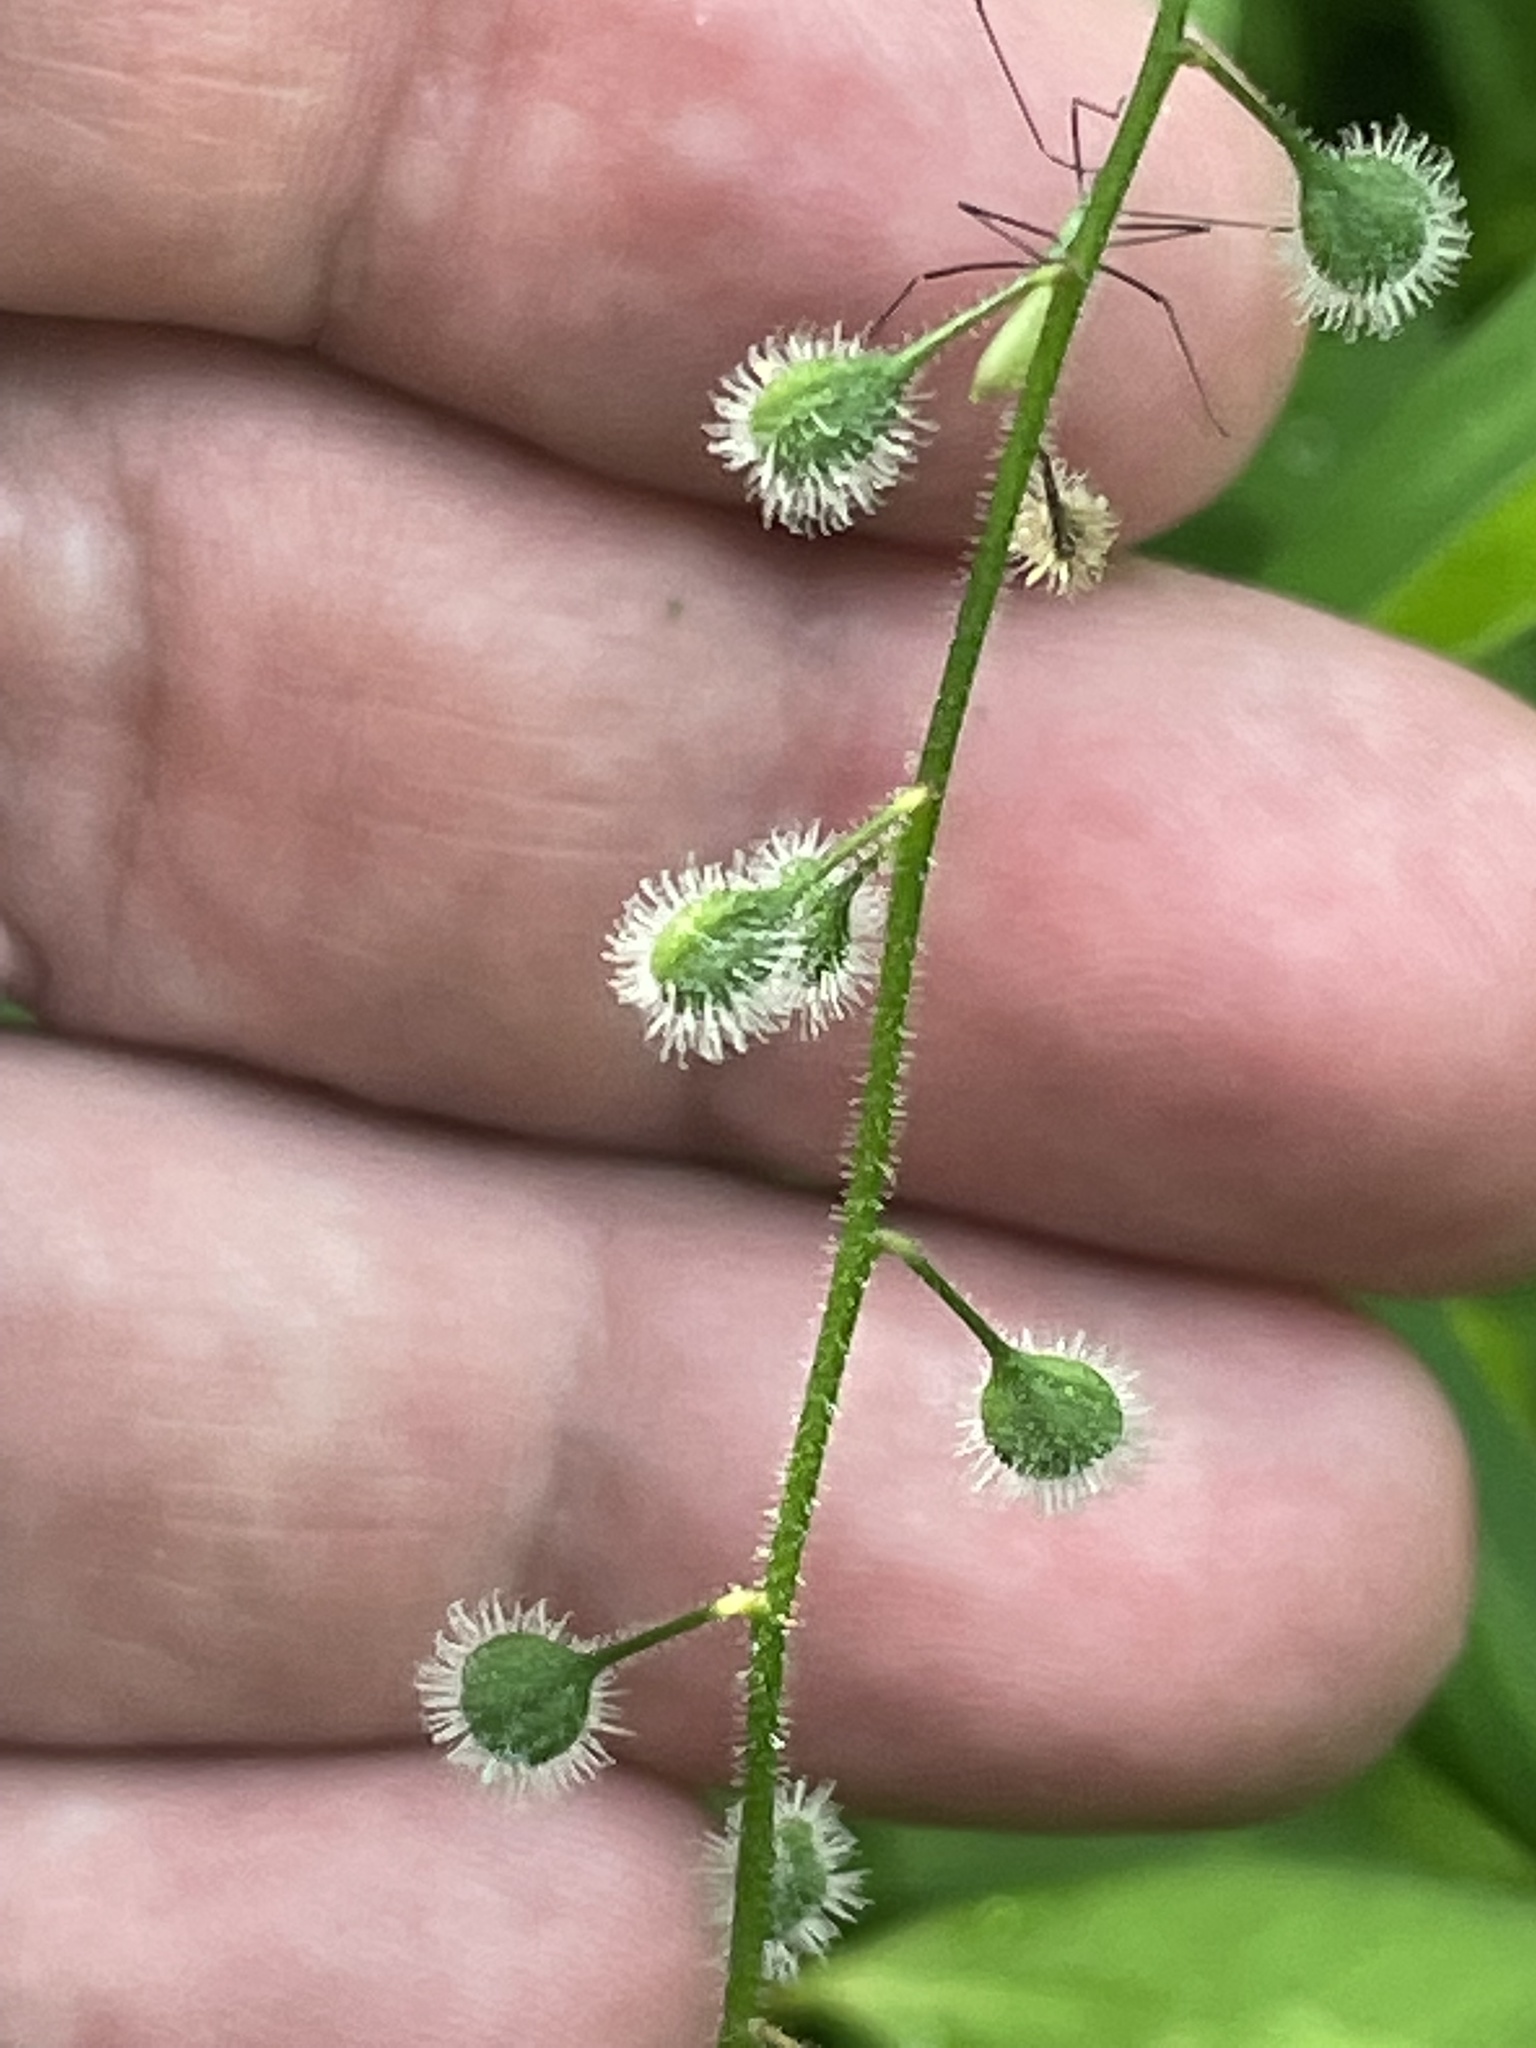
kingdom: Plantae
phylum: Tracheophyta
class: Magnoliopsida
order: Myrtales
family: Onagraceae
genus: Circaea
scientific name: Circaea canadensis
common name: Broad-leaved enchanter's nightshade
